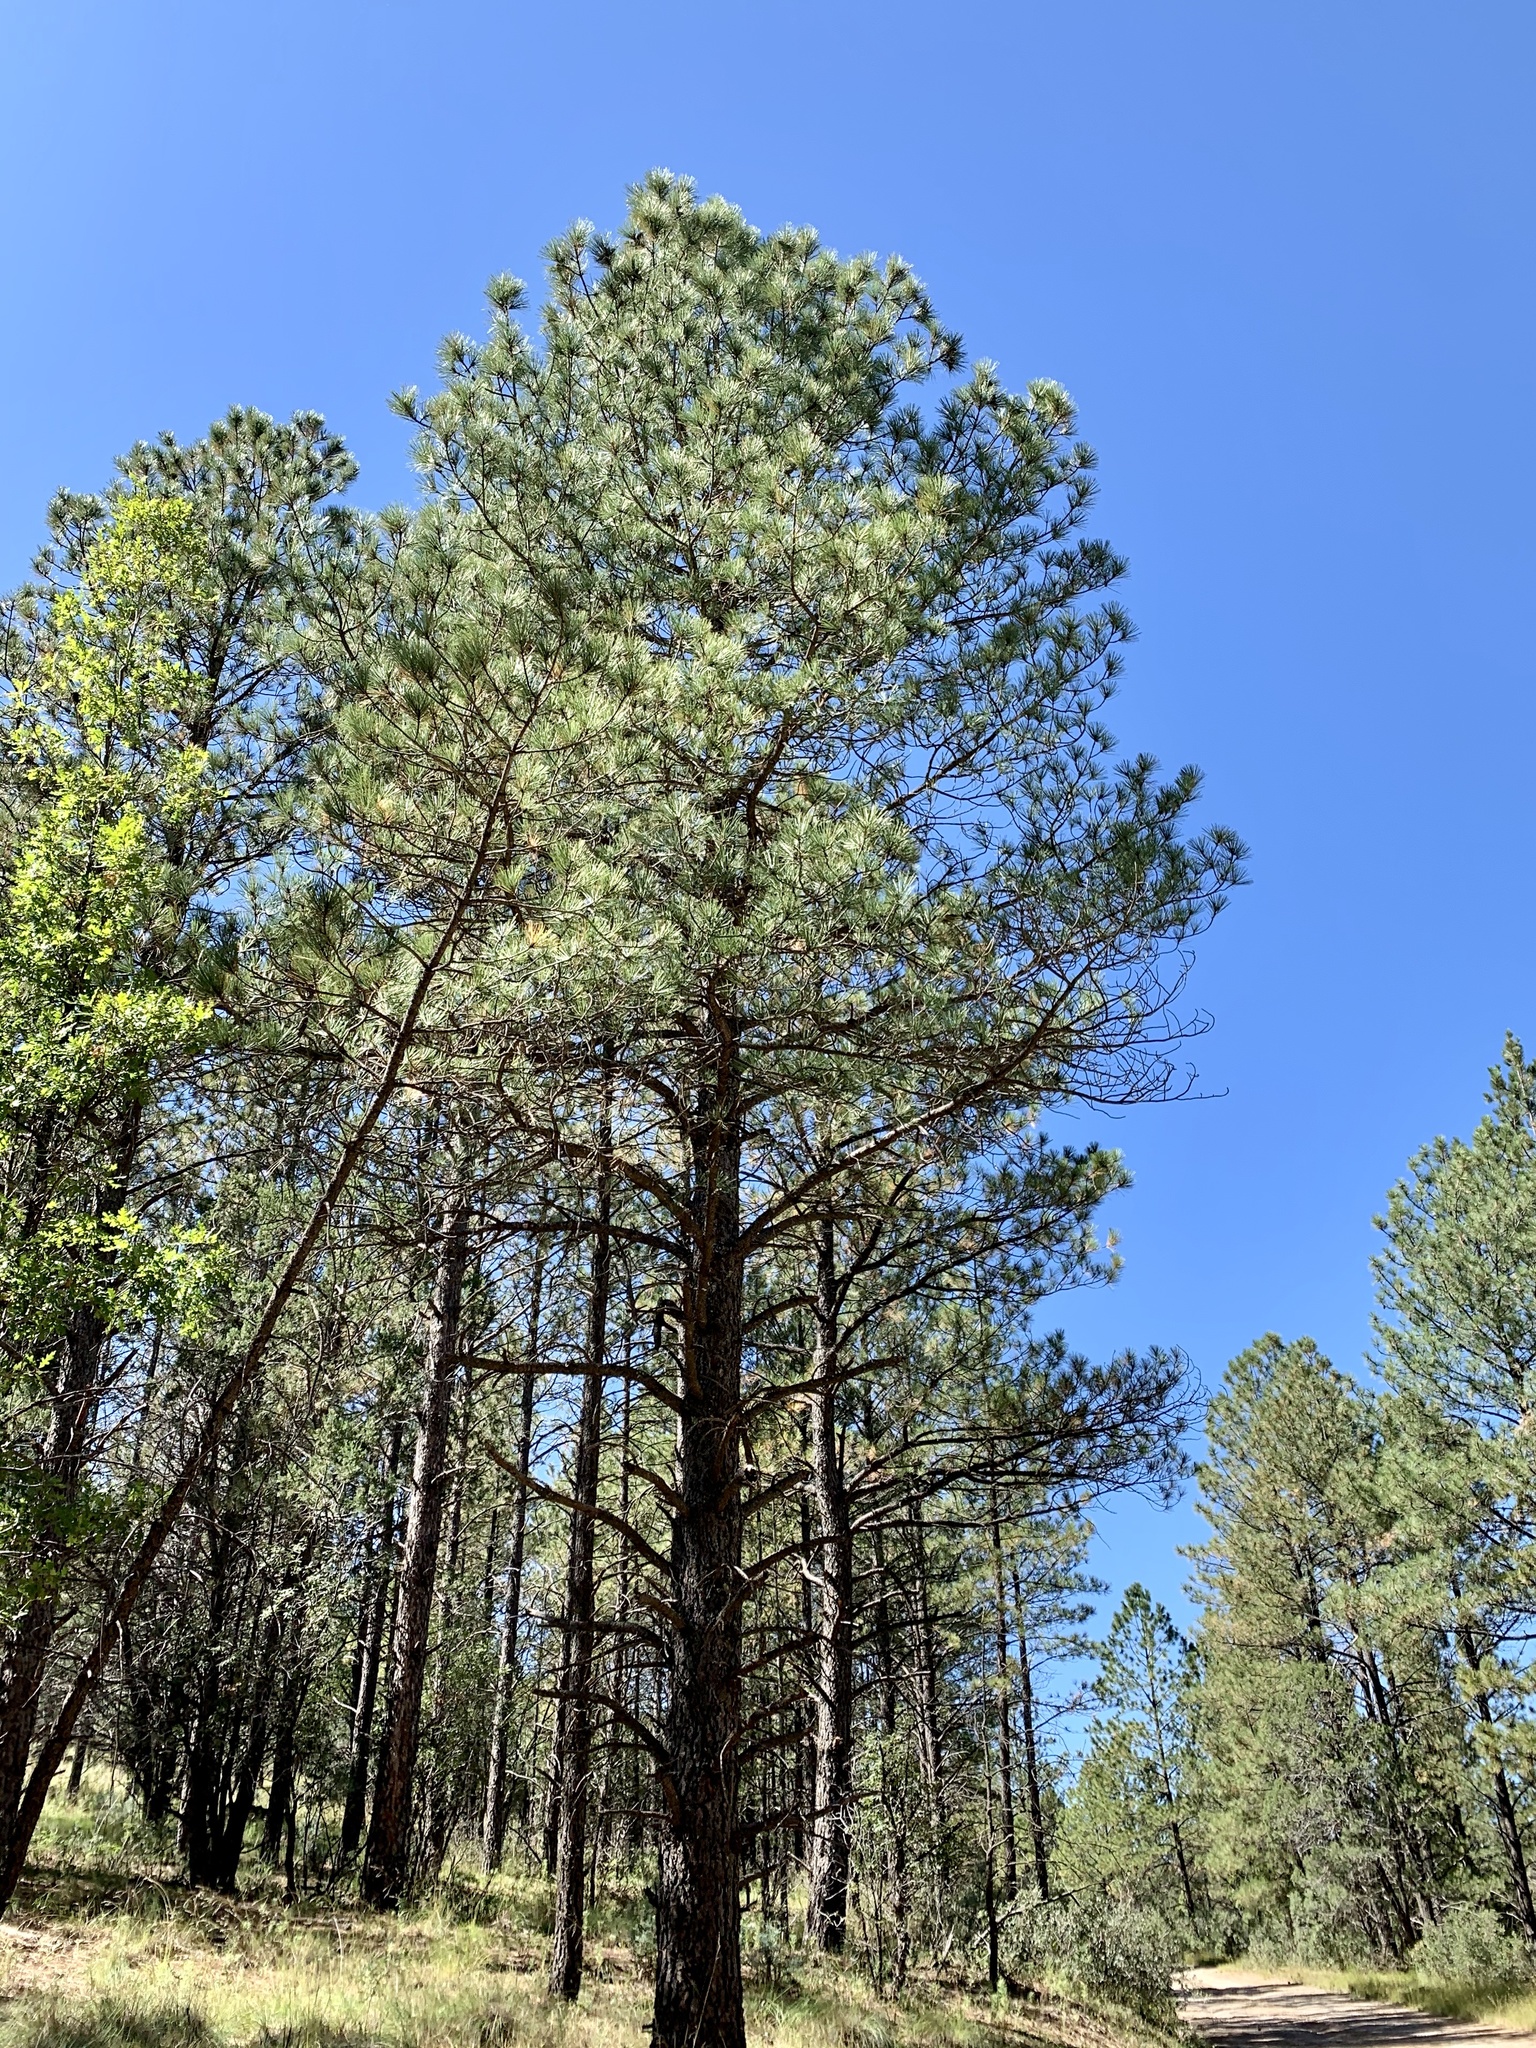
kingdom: Plantae
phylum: Tracheophyta
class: Pinopsida
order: Pinales
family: Pinaceae
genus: Pinus
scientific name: Pinus ponderosa
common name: Western yellow-pine
